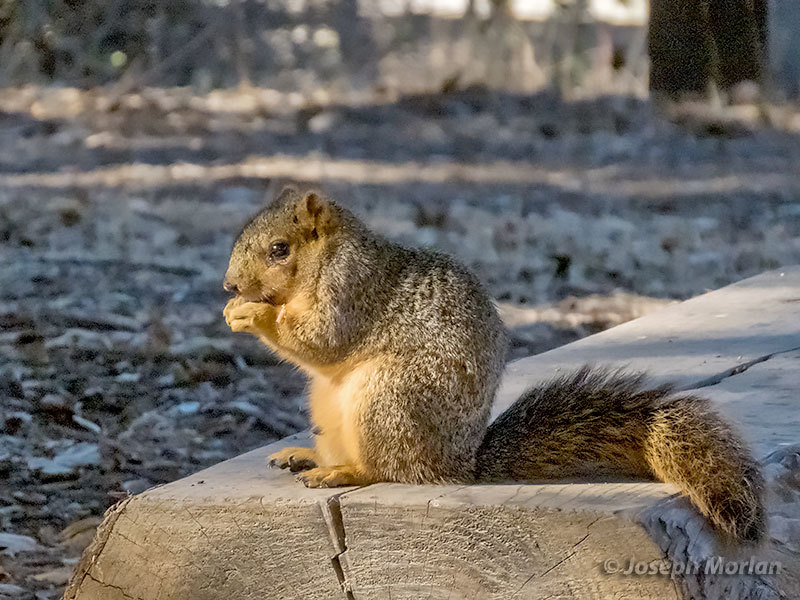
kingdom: Animalia
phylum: Chordata
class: Mammalia
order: Rodentia
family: Sciuridae
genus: Sciurus
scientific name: Sciurus niger
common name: Fox squirrel
